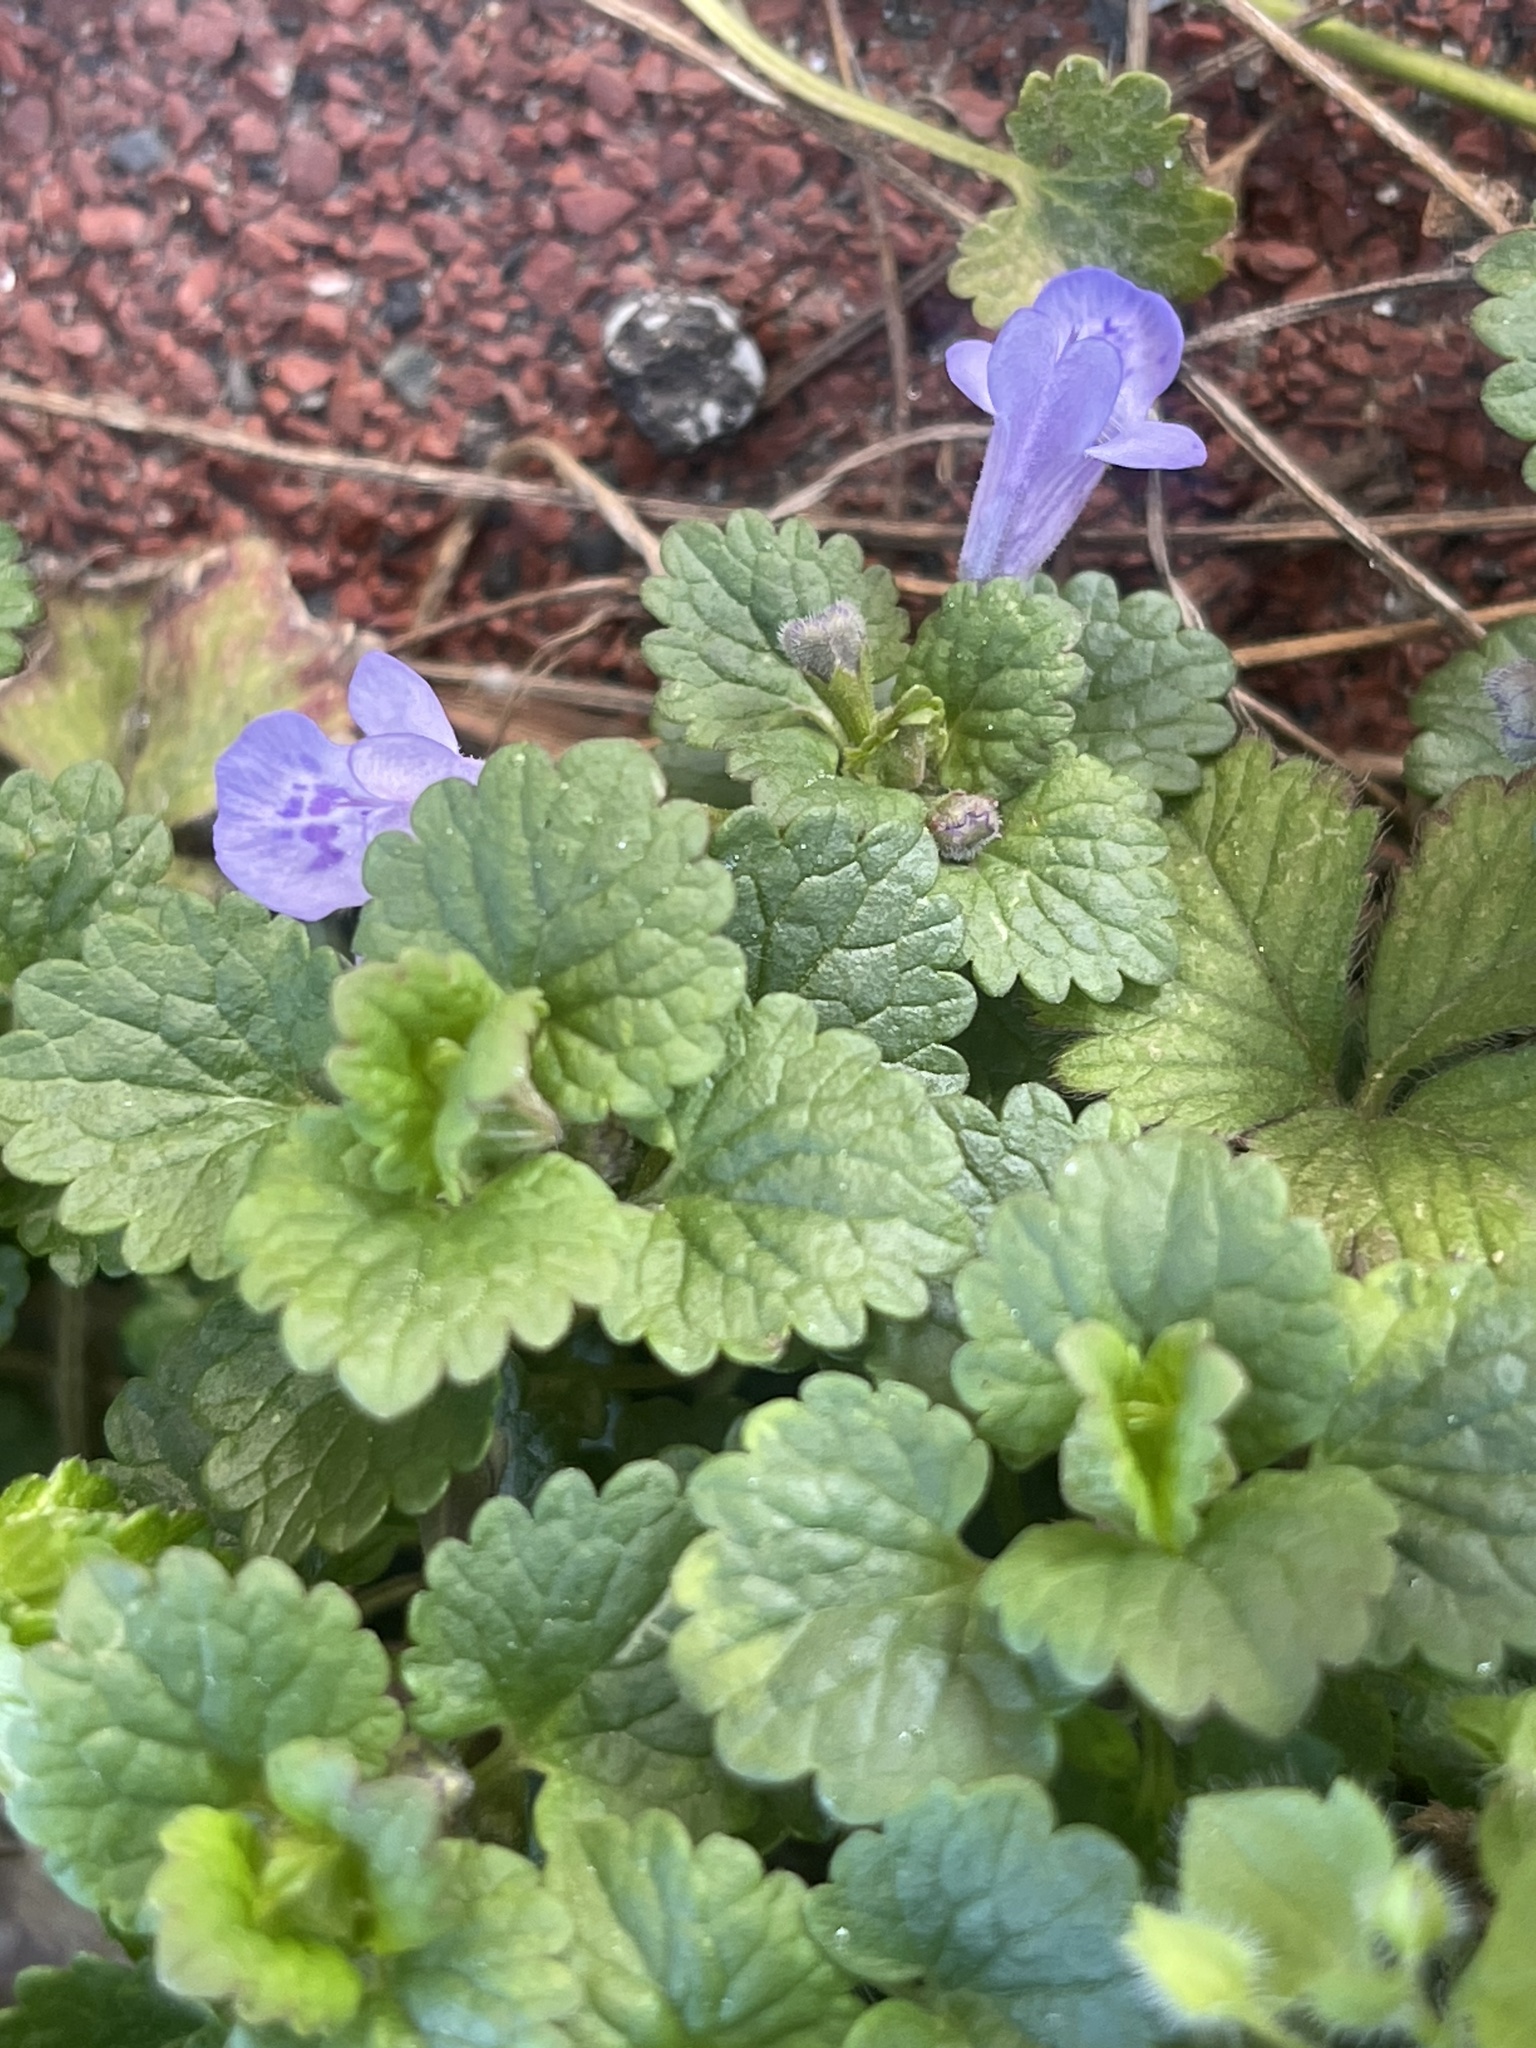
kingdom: Plantae
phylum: Tracheophyta
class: Magnoliopsida
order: Lamiales
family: Lamiaceae
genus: Glechoma
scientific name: Glechoma hederacea
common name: Ground ivy
